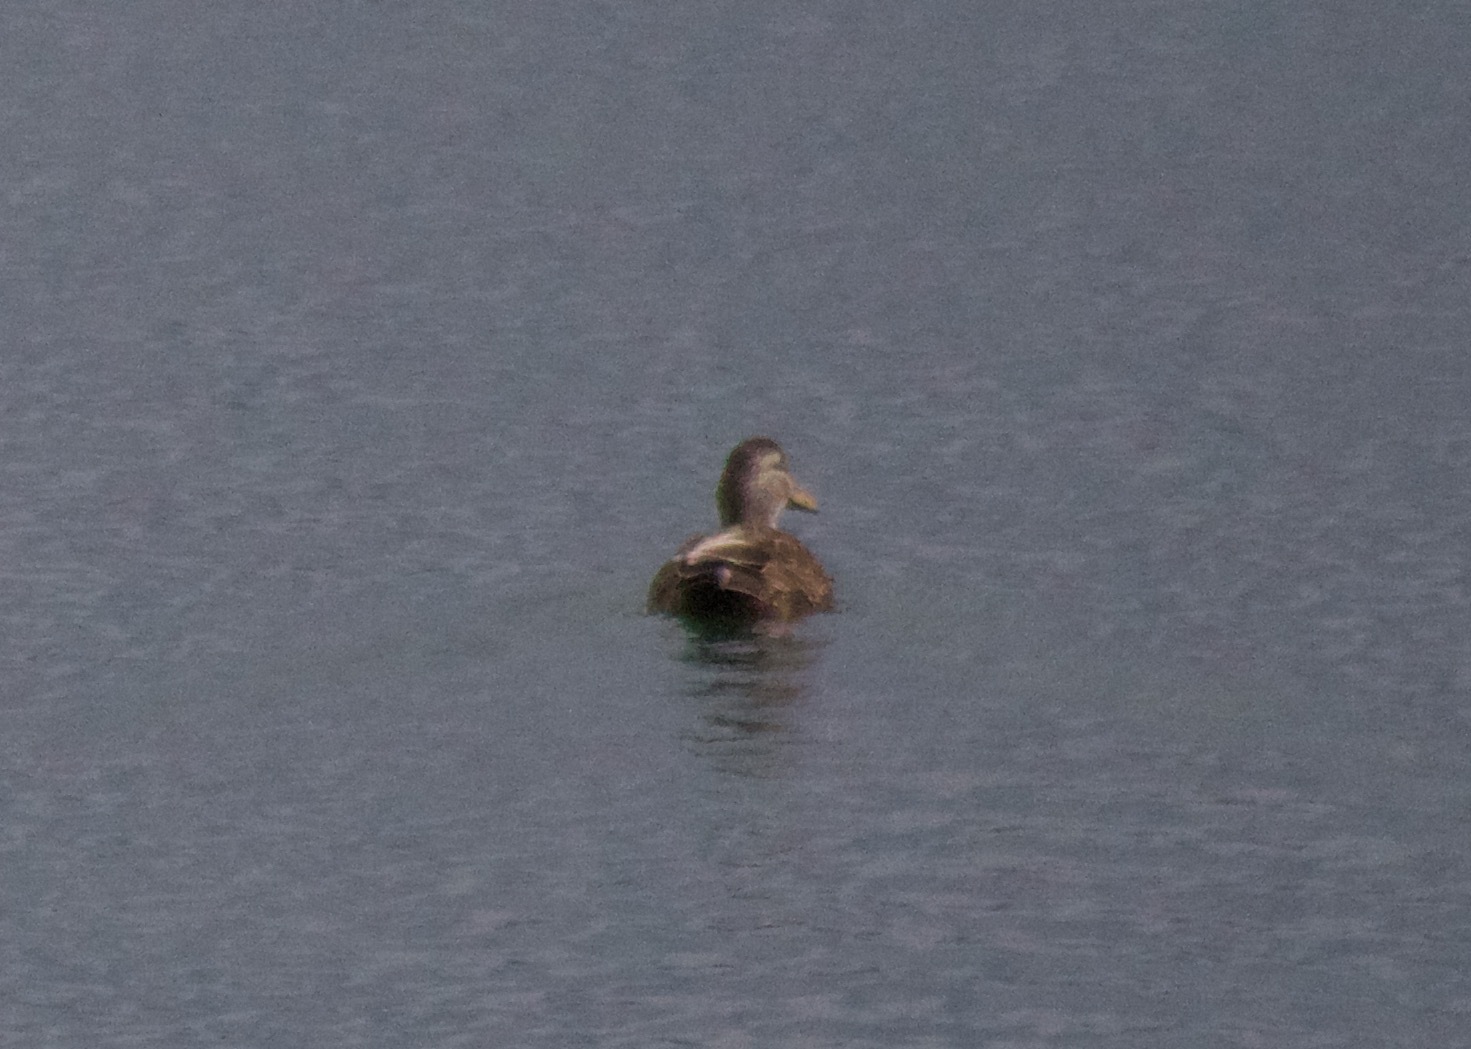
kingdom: Animalia
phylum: Chordata
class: Aves
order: Anseriformes
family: Anatidae
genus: Anas
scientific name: Anas rubripes
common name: American black duck
